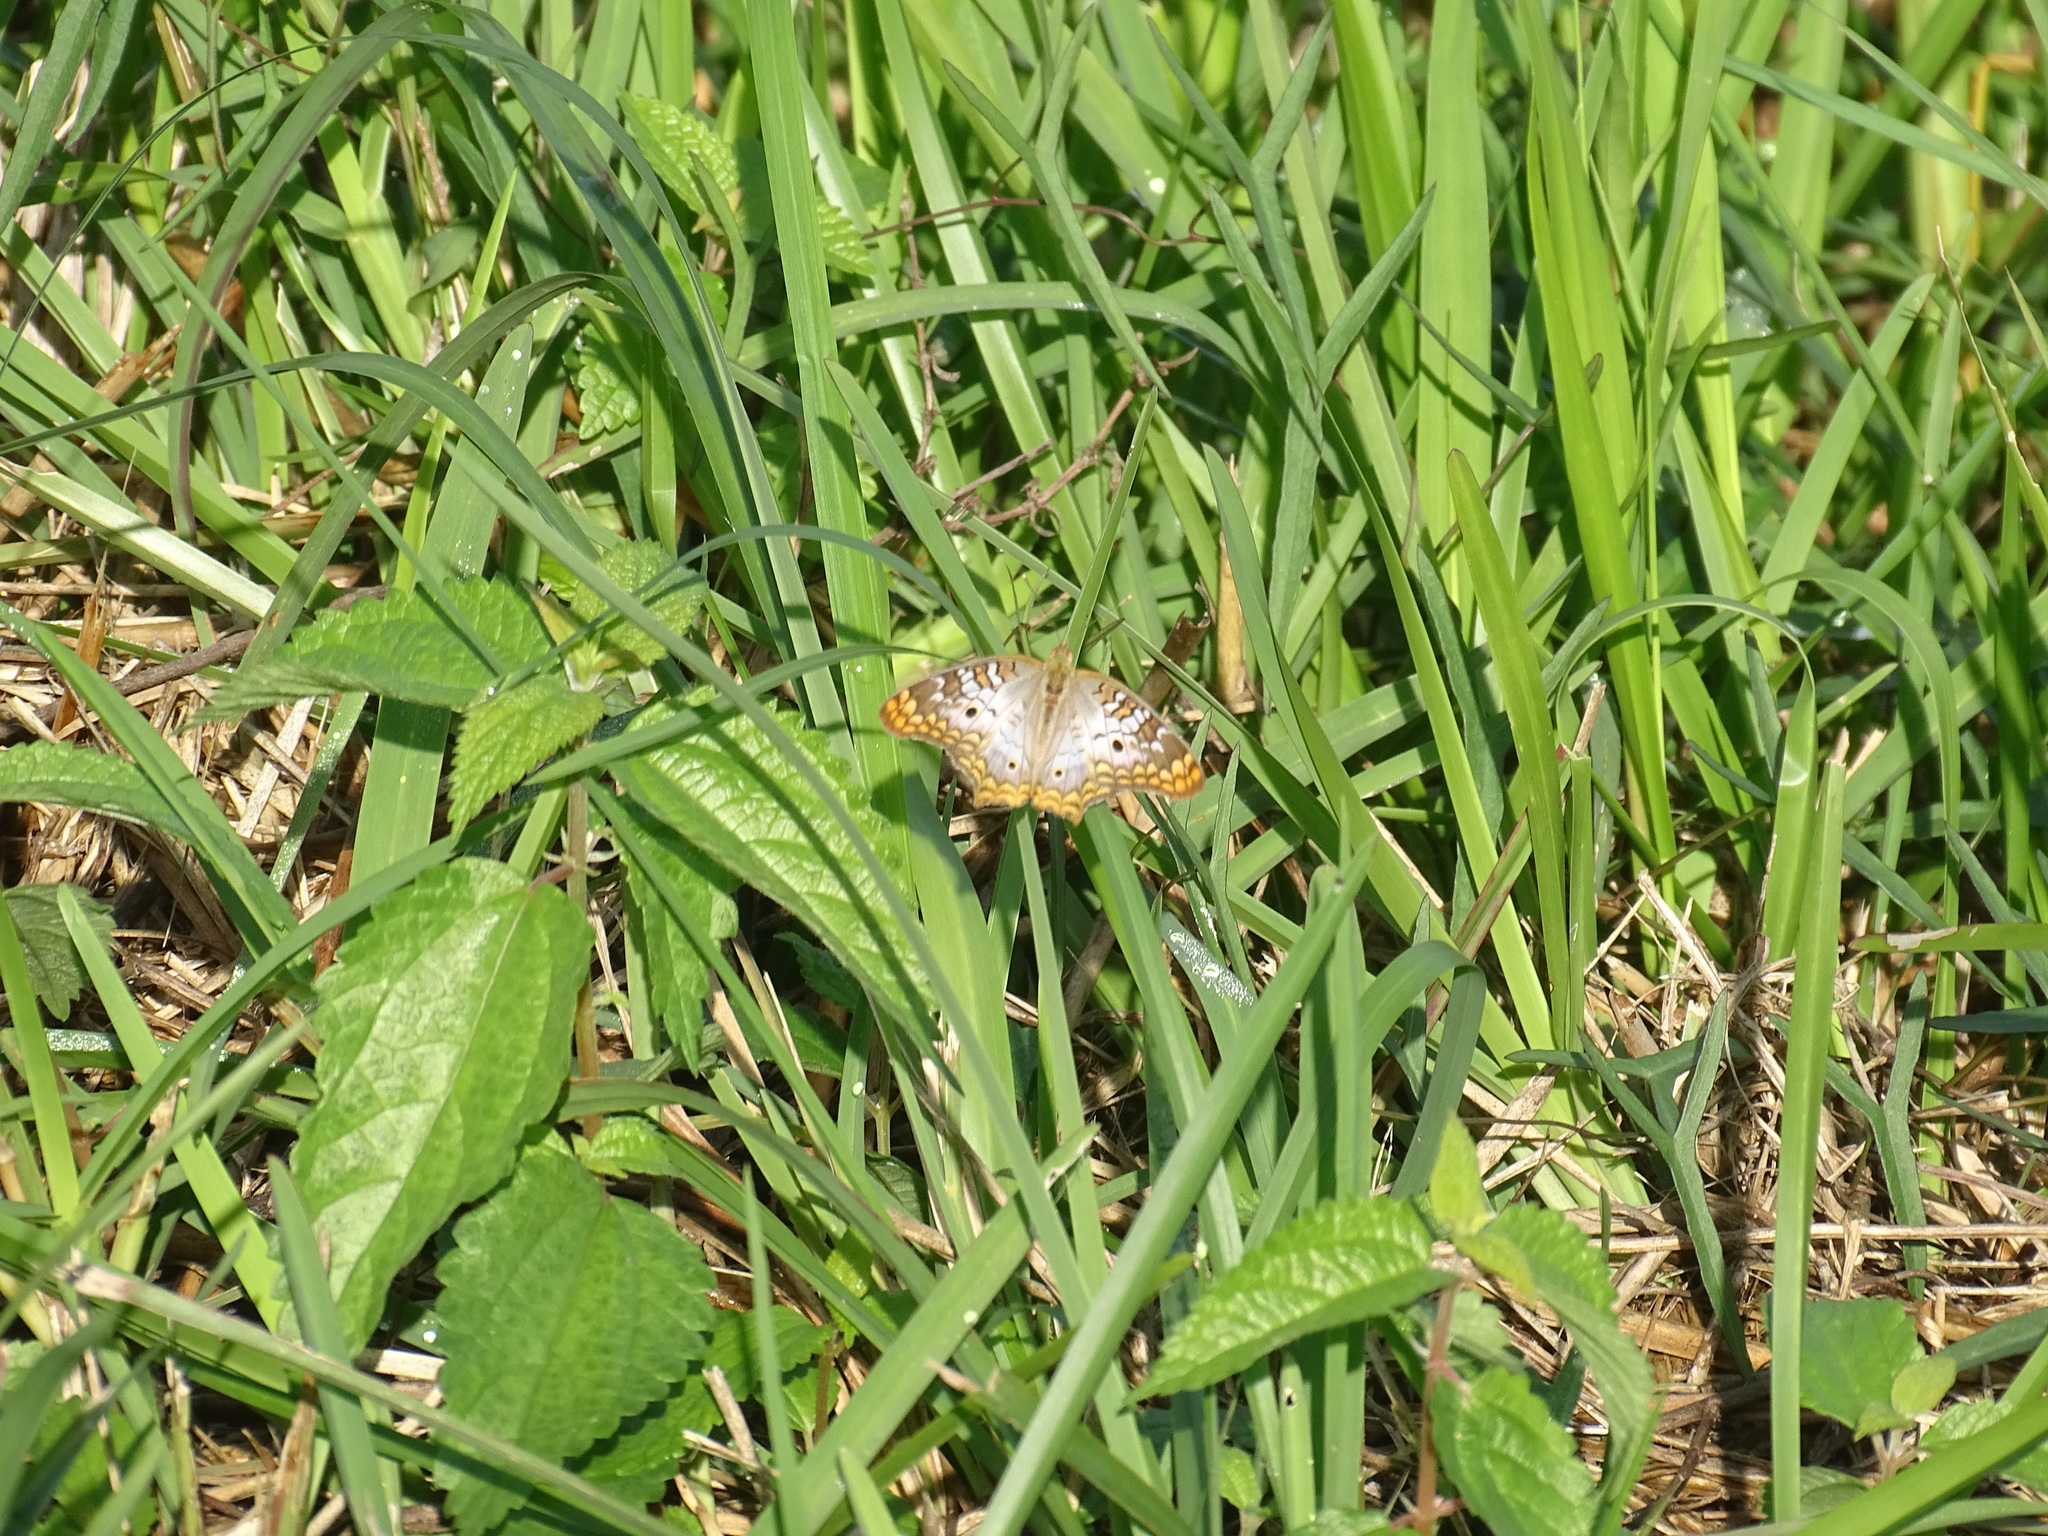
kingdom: Animalia
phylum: Arthropoda
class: Insecta
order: Lepidoptera
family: Nymphalidae
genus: Anartia
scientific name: Anartia jatrophae
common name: White peacock
